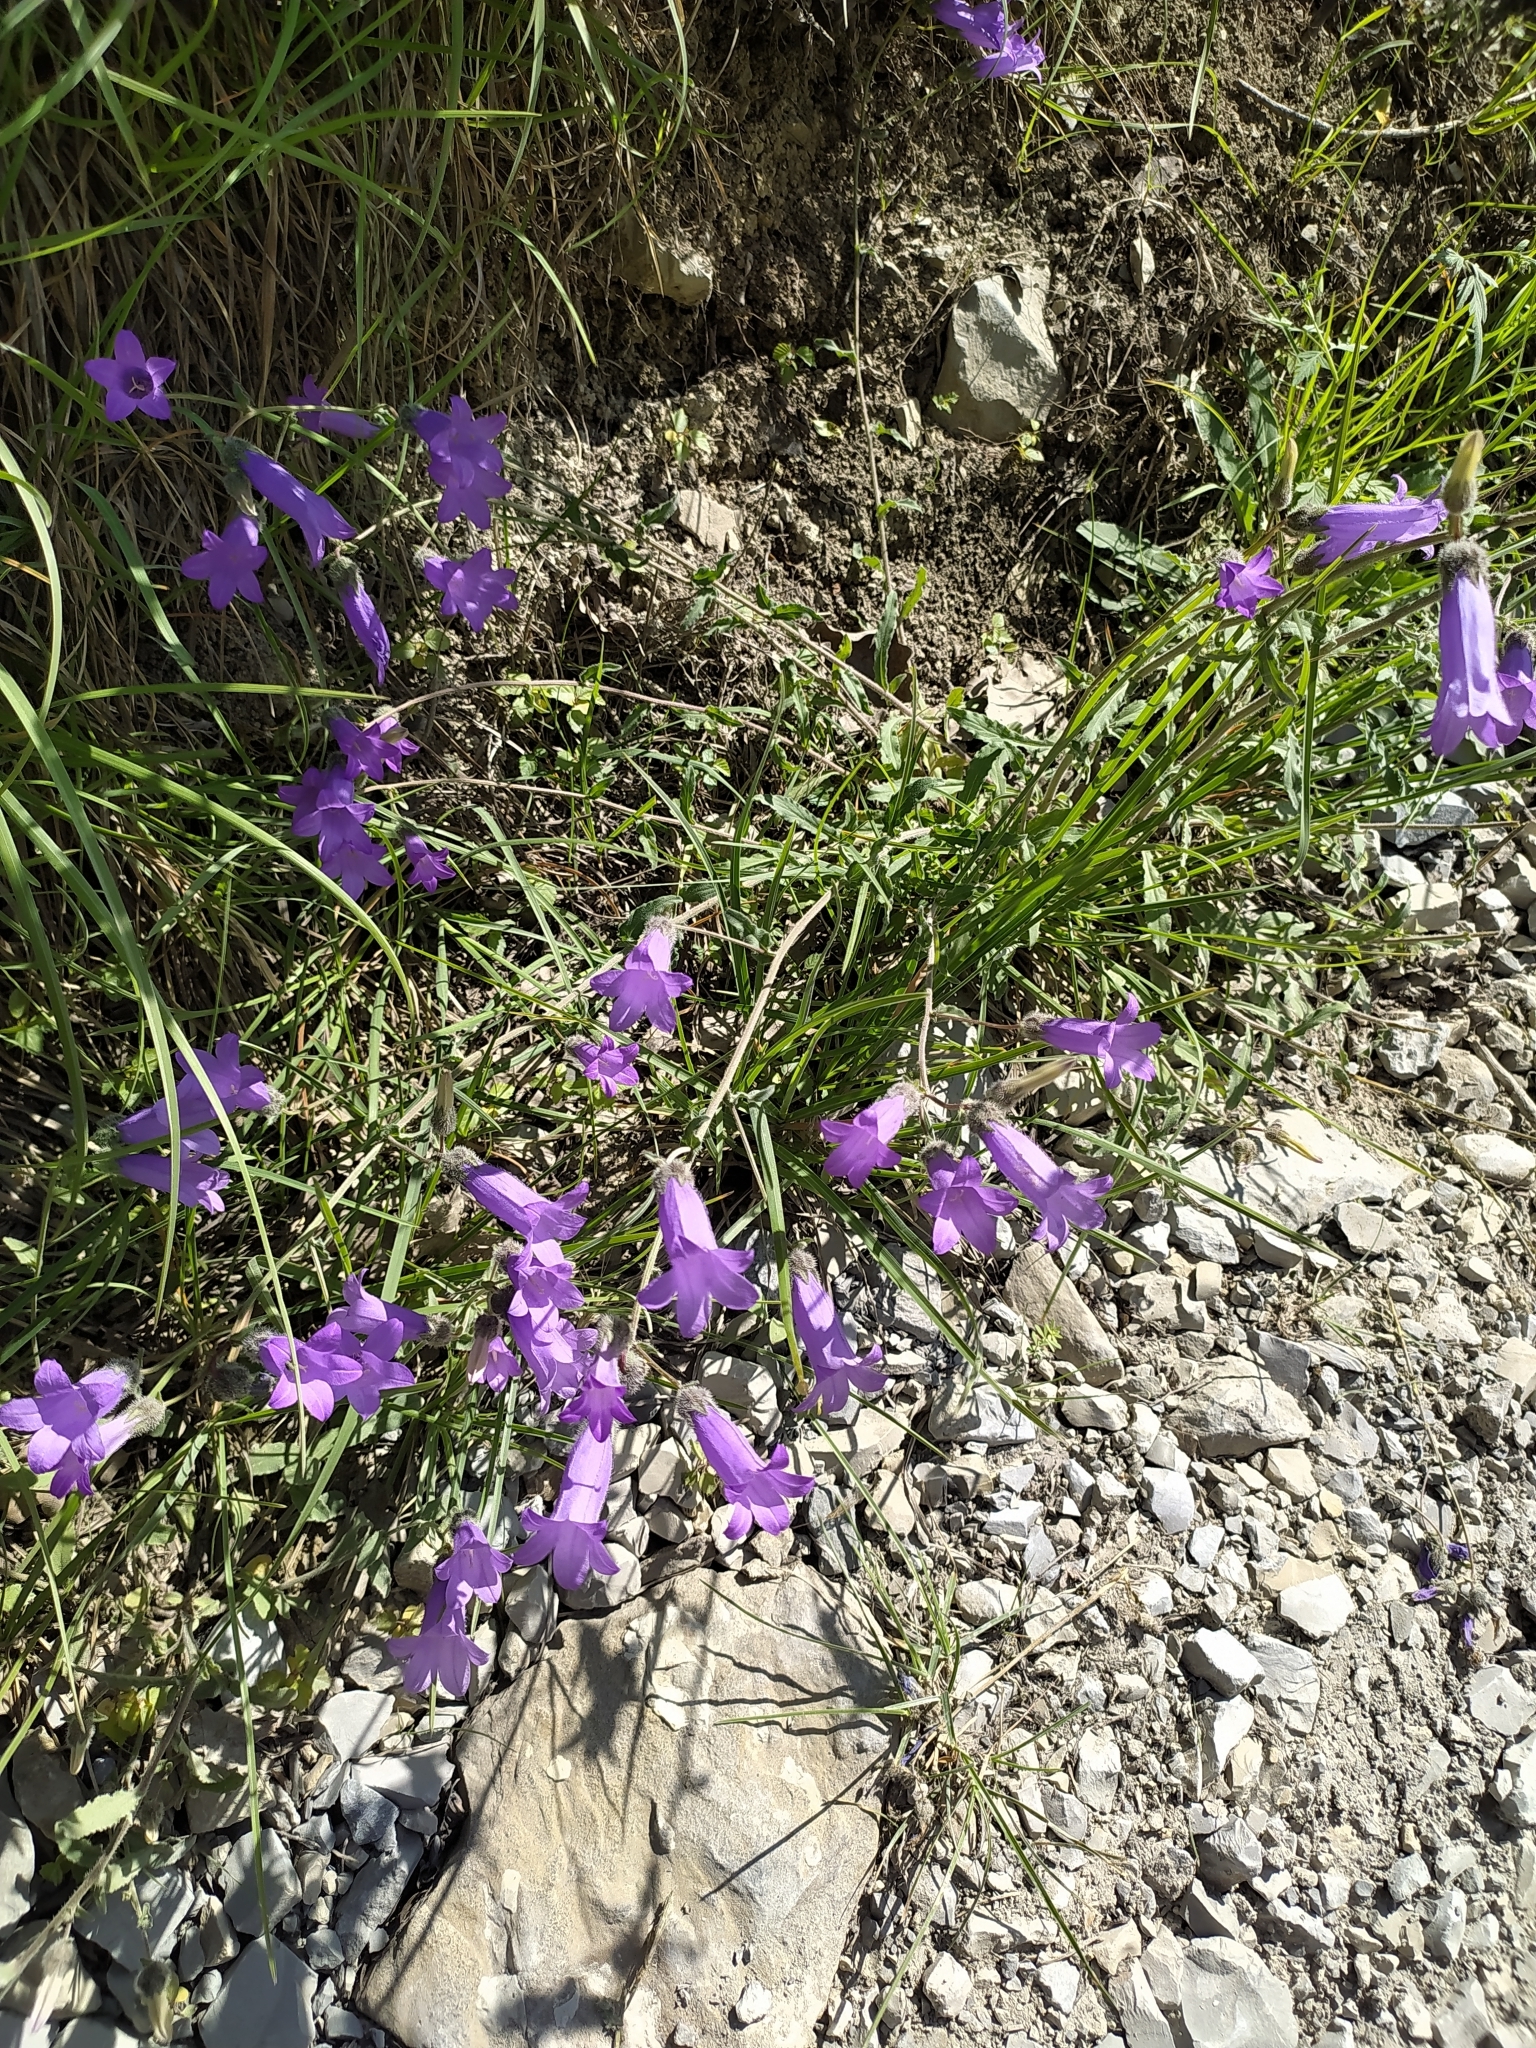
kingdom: Plantae
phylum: Tracheophyta
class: Magnoliopsida
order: Asterales
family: Campanulaceae
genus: Campanula
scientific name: Campanula komarovii
